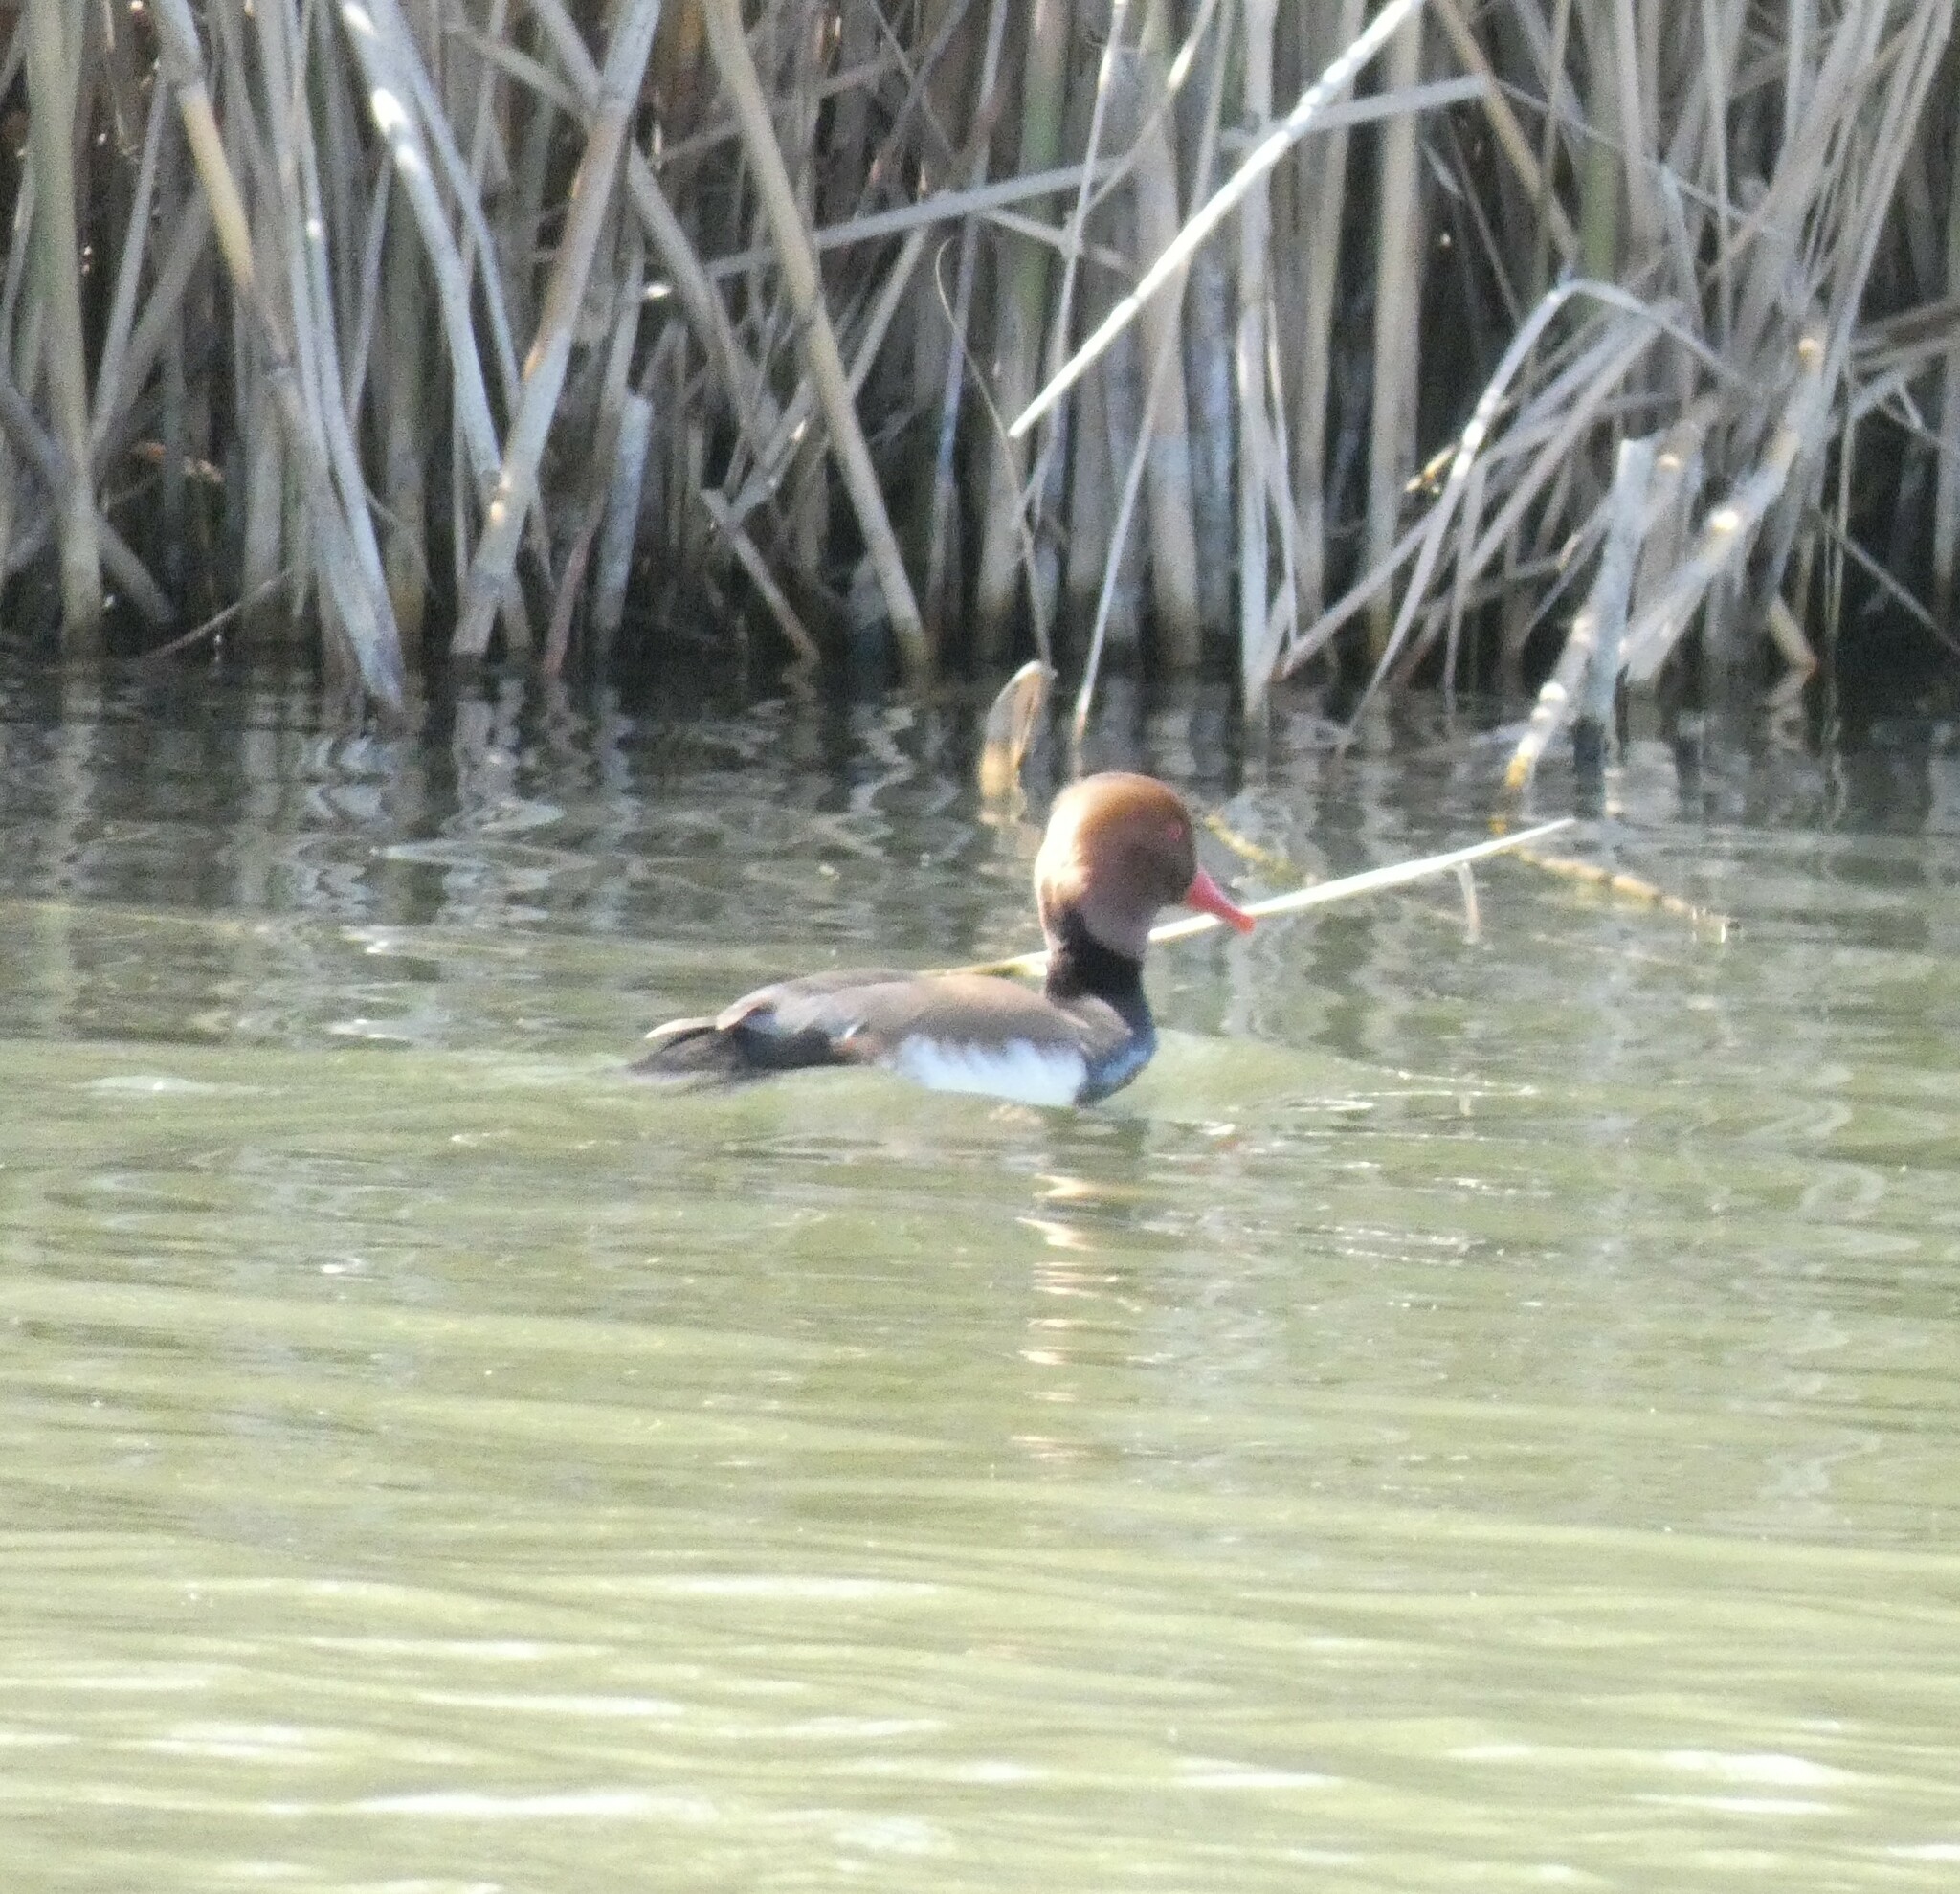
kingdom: Animalia
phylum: Chordata
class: Aves
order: Anseriformes
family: Anatidae
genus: Netta
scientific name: Netta rufina
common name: Red-crested pochard
